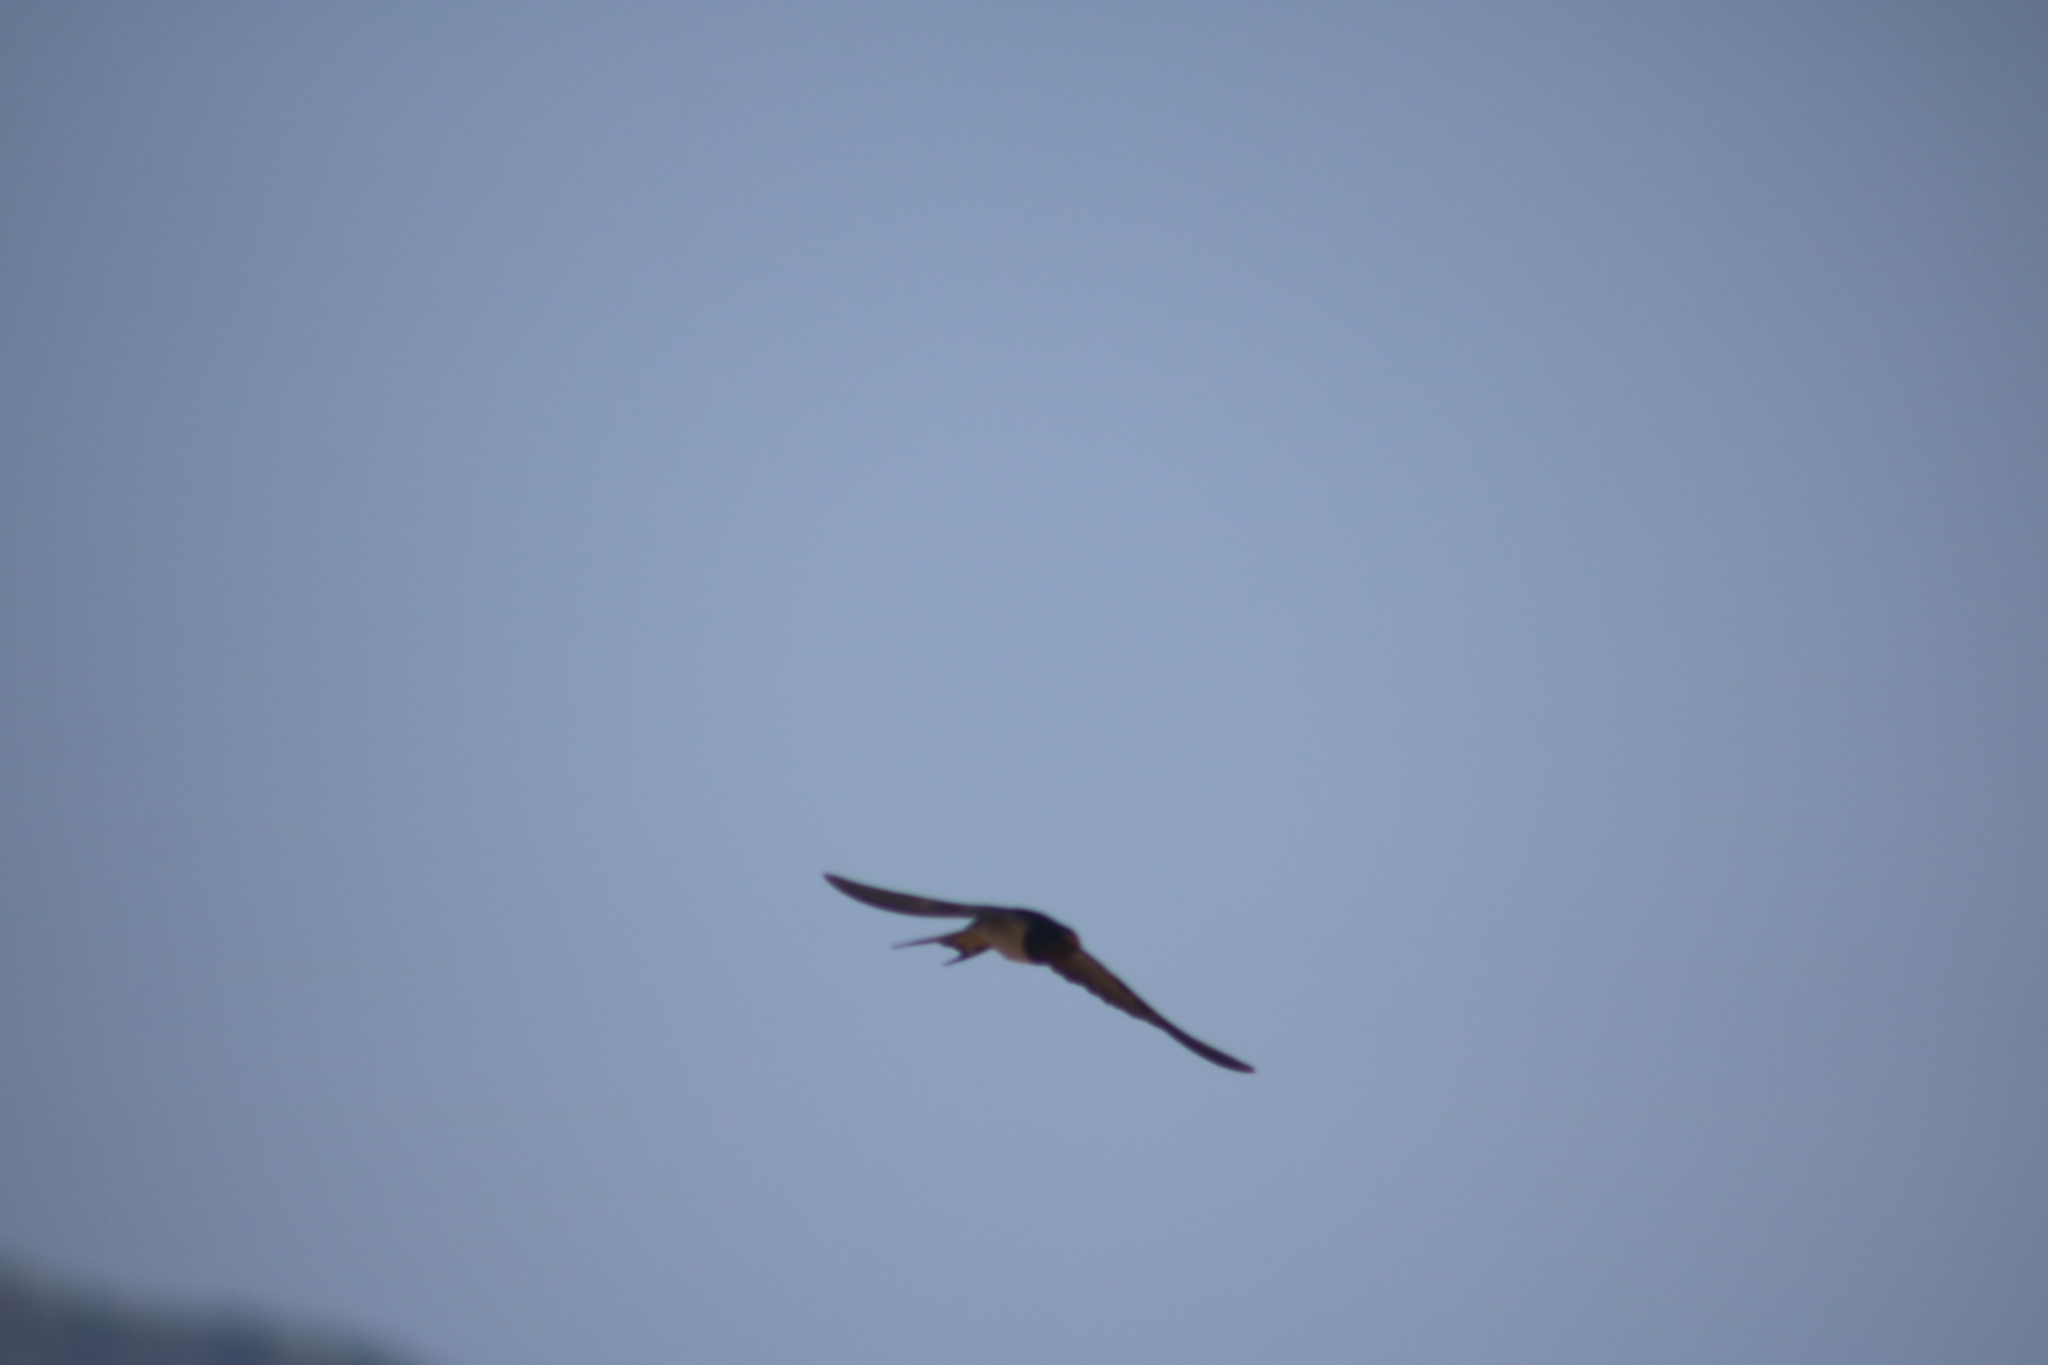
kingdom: Animalia
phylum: Chordata
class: Aves
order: Passeriformes
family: Hirundinidae
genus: Hirundo
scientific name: Hirundo rustica
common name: Barn swallow
